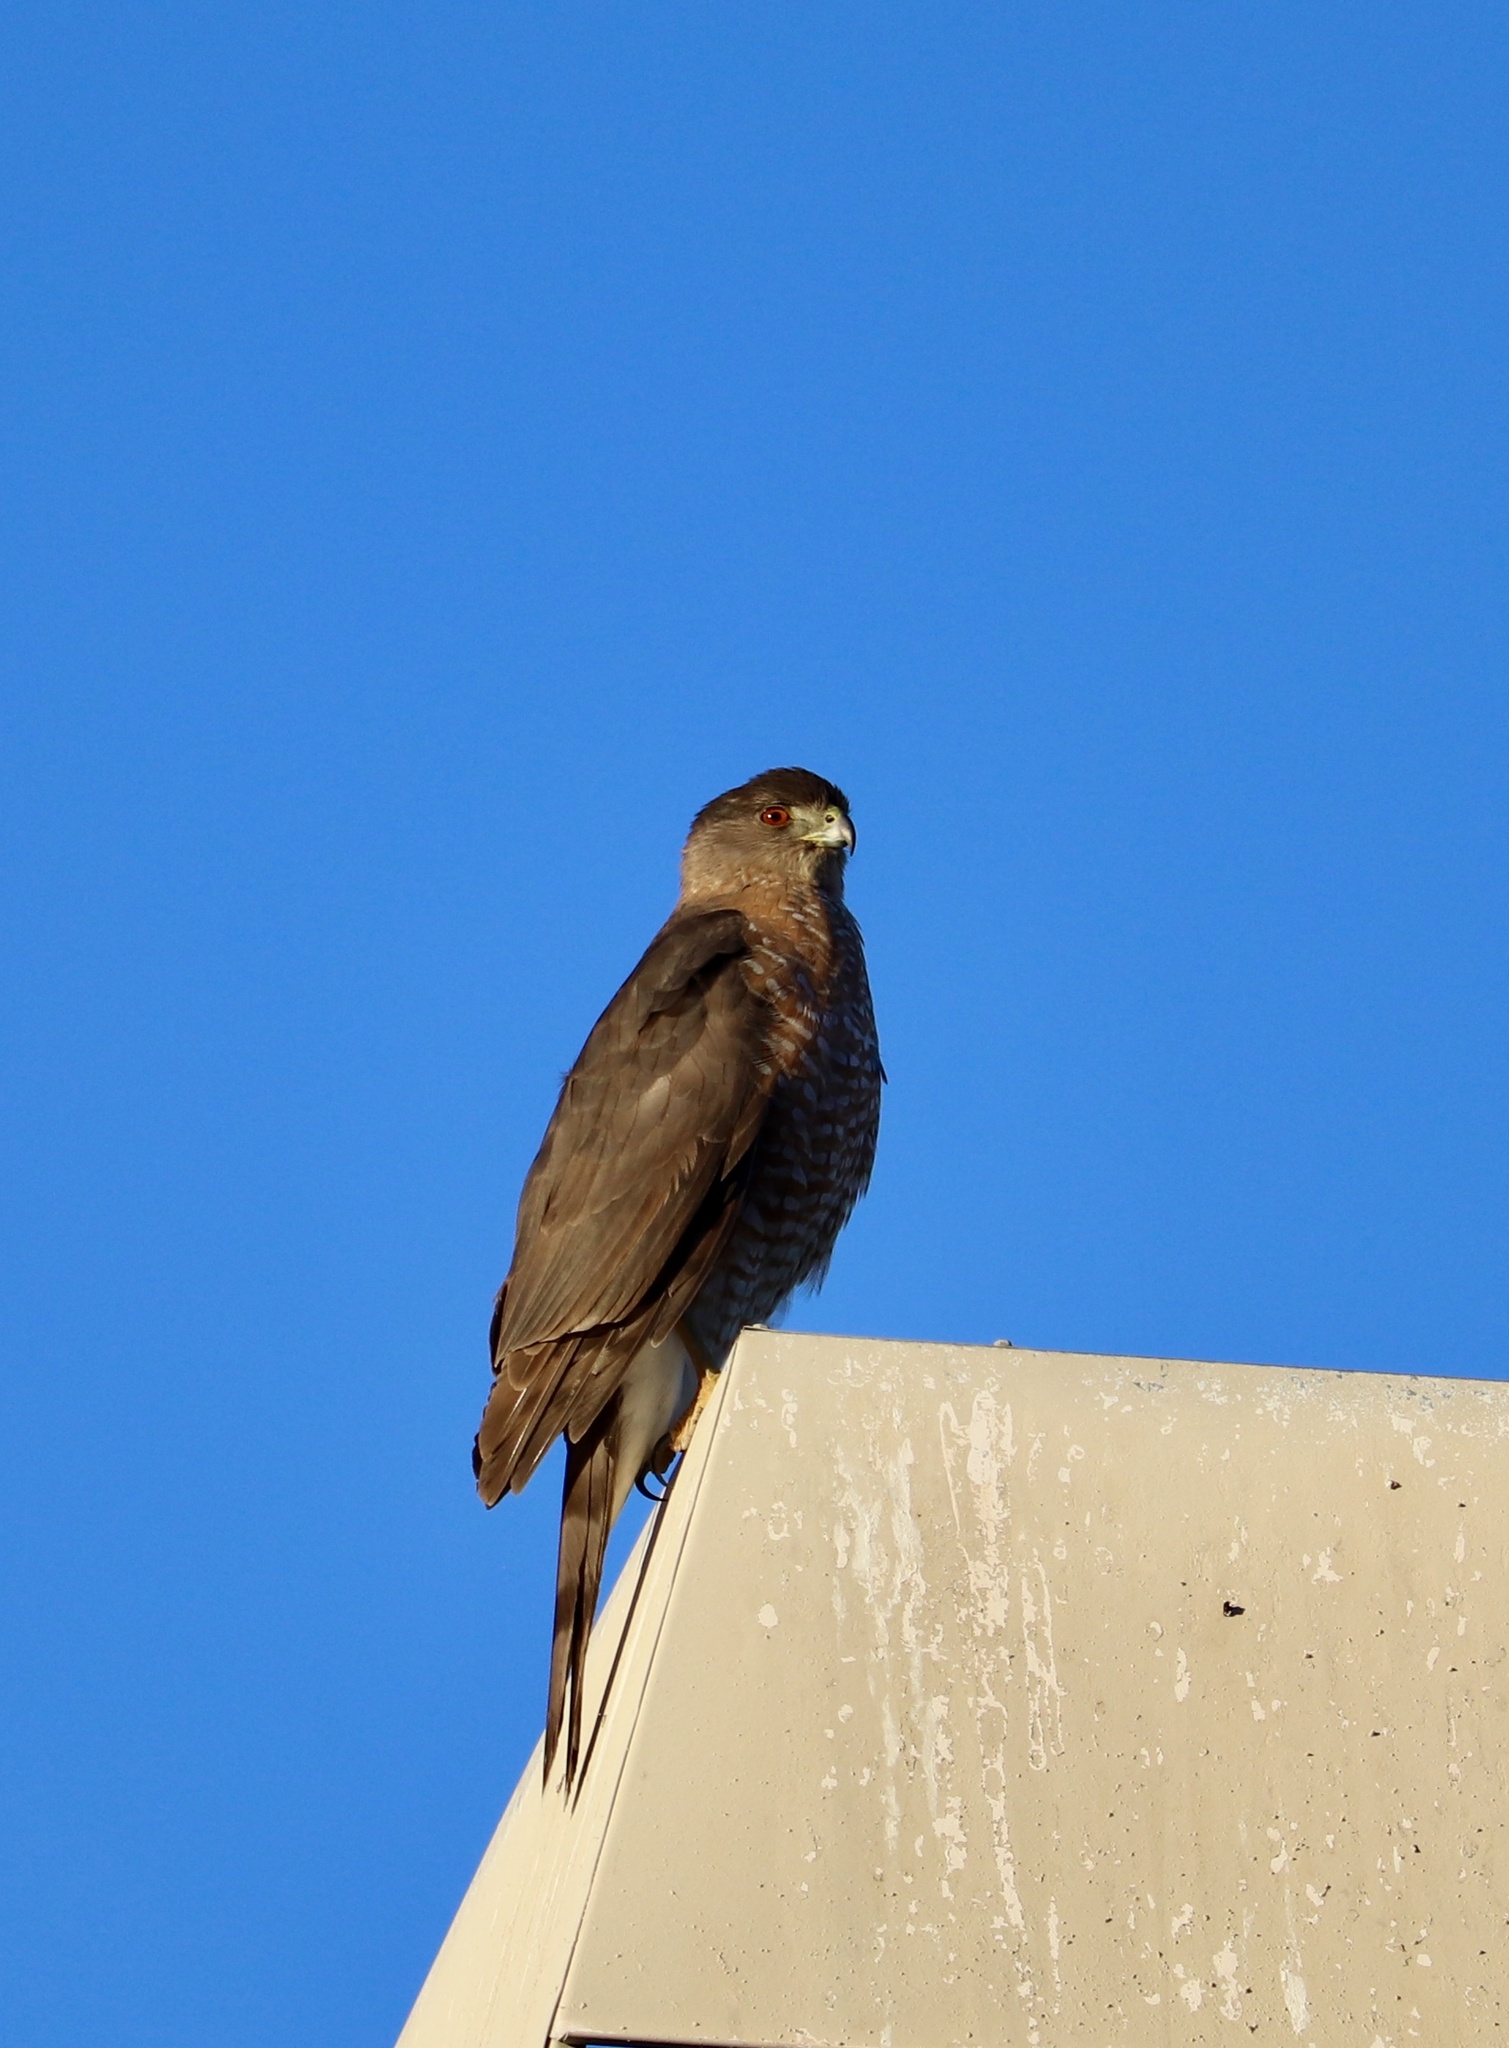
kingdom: Animalia
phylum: Chordata
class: Aves
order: Accipitriformes
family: Accipitridae
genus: Accipiter
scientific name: Accipiter cooperii
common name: Cooper's hawk
